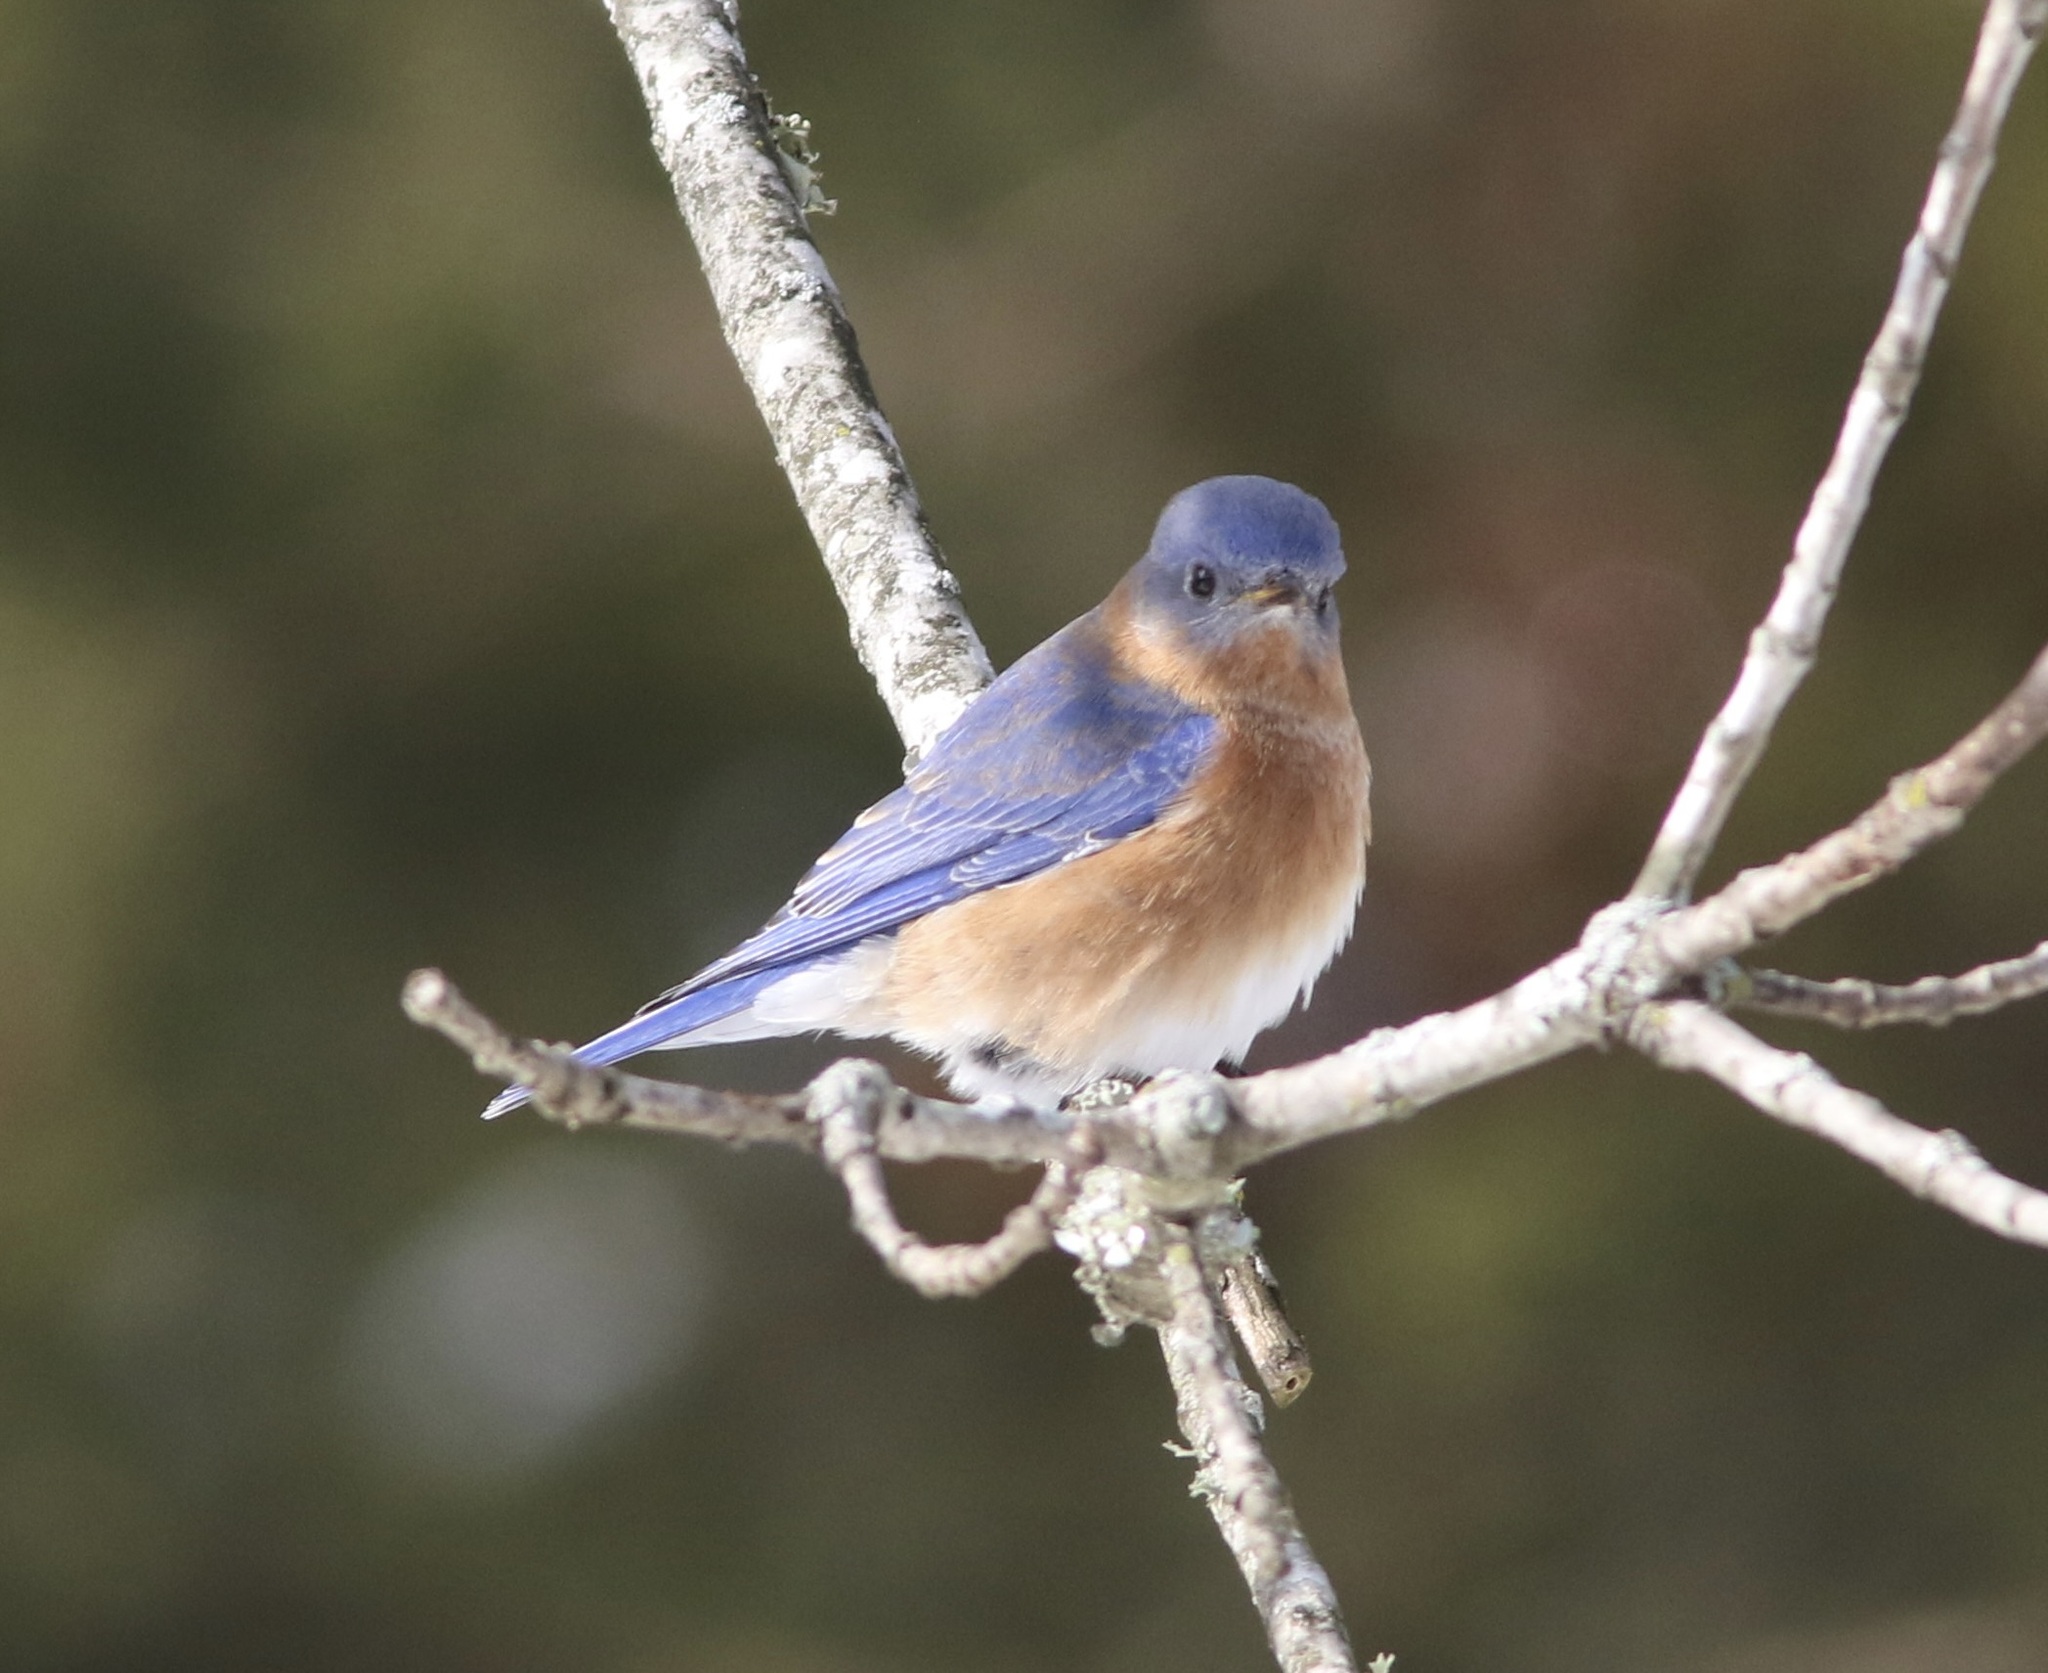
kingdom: Animalia
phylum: Chordata
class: Aves
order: Passeriformes
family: Turdidae
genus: Sialia
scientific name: Sialia sialis
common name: Eastern bluebird
